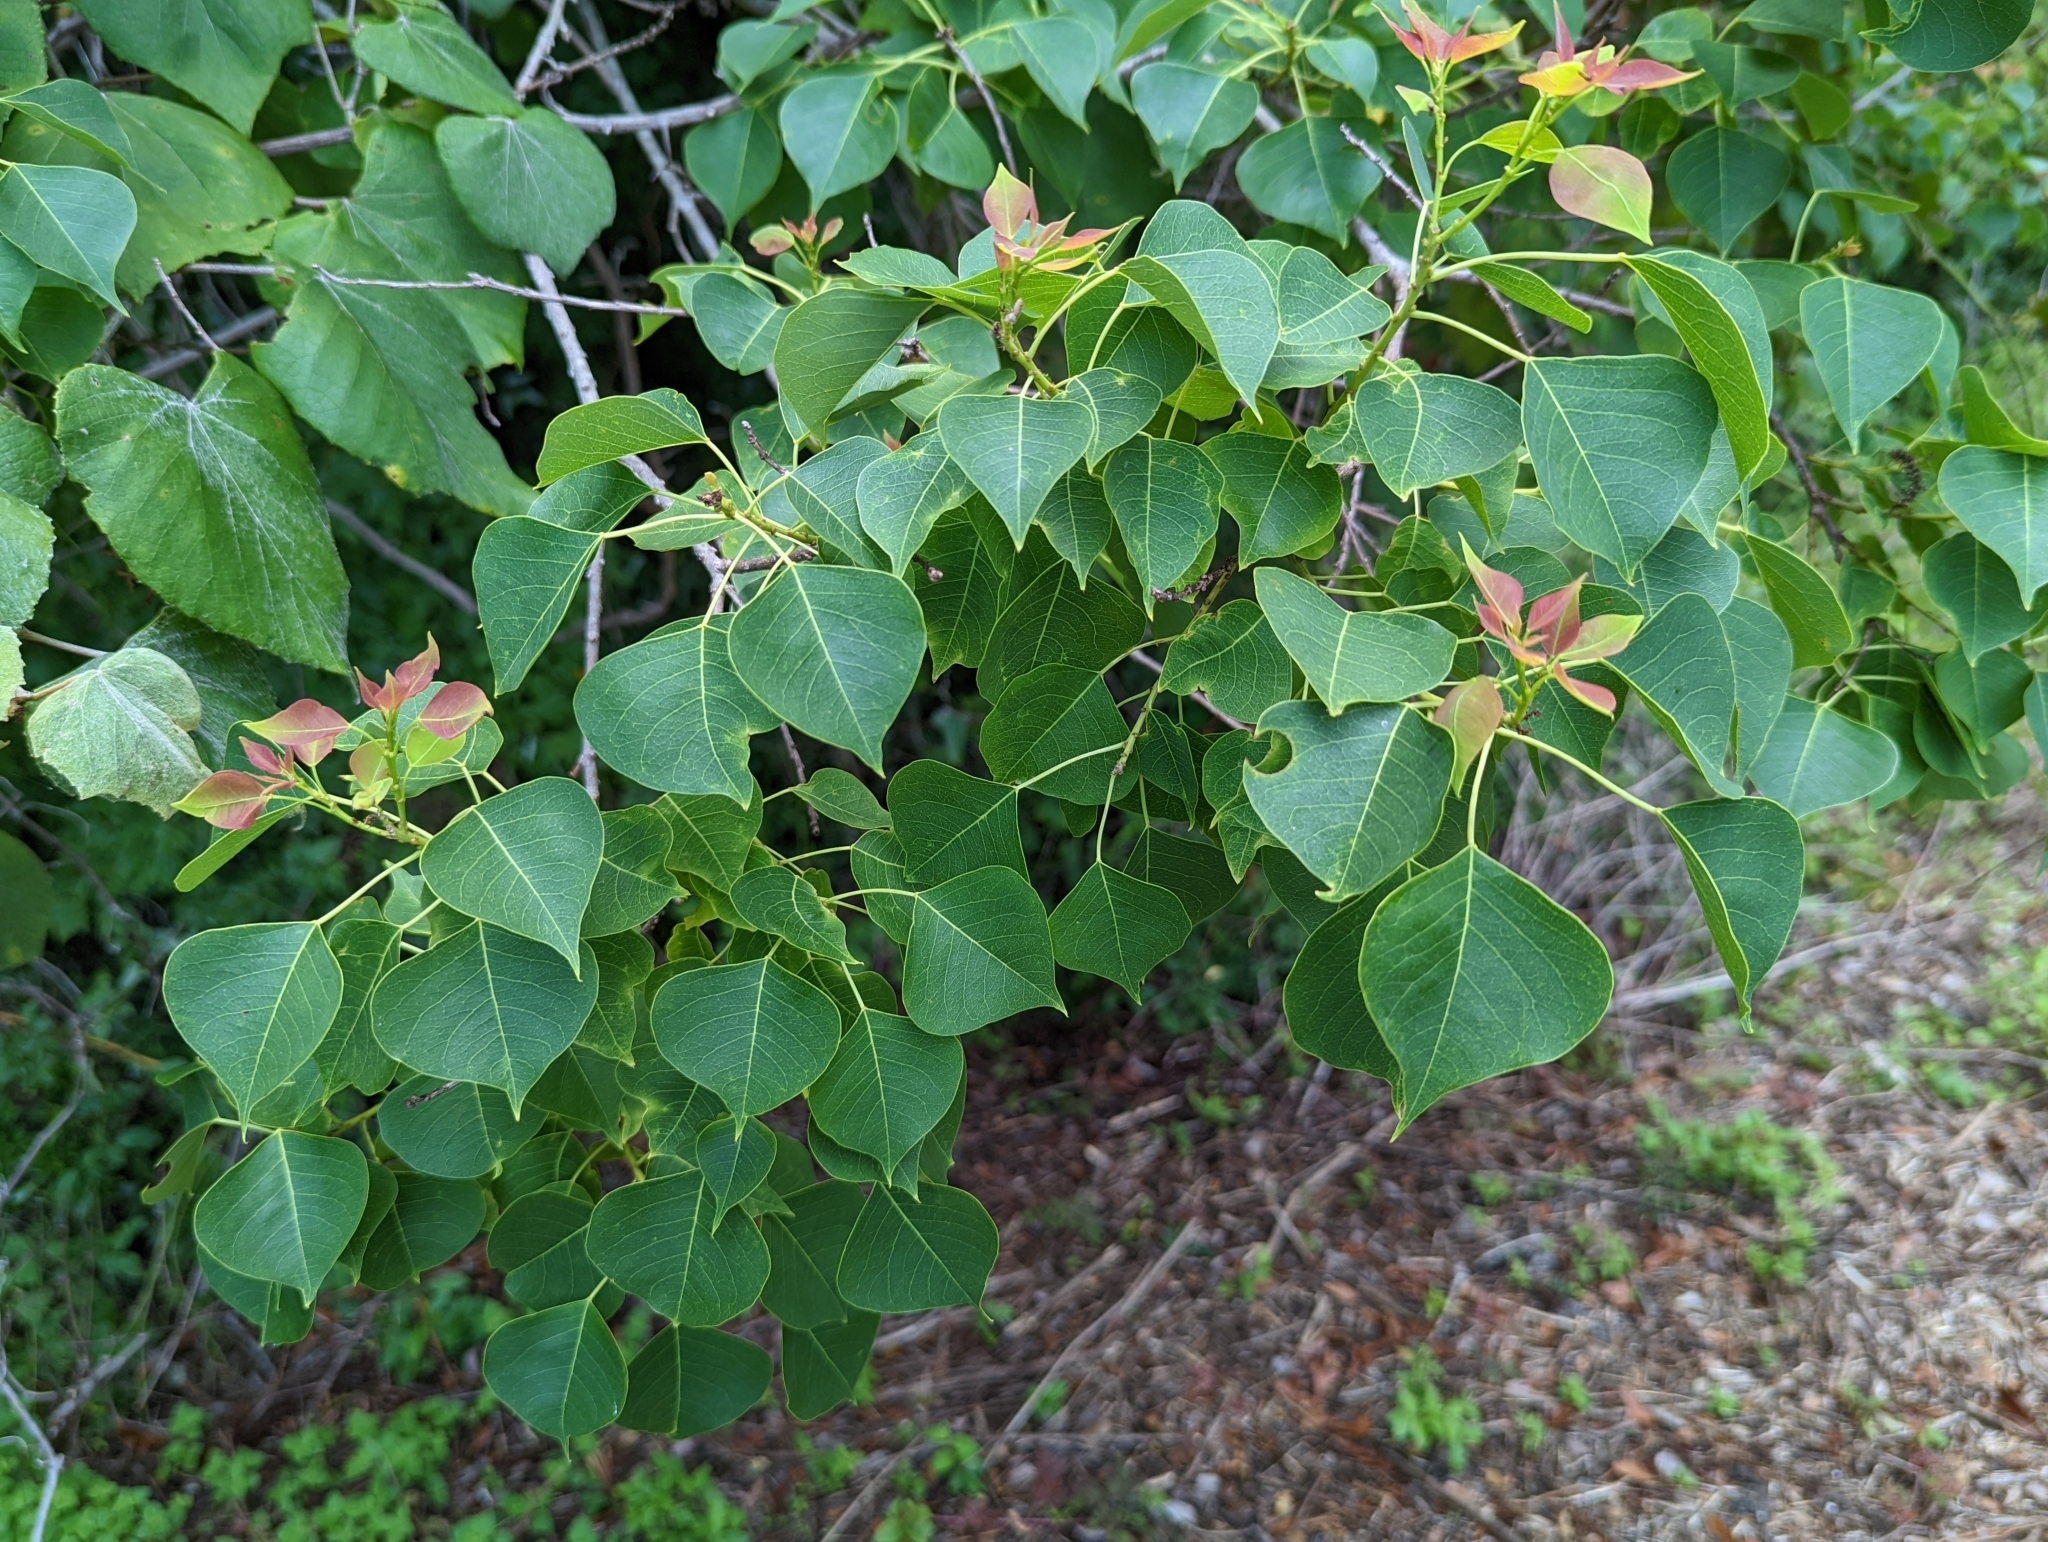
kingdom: Plantae
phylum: Tracheophyta
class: Magnoliopsida
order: Malpighiales
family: Euphorbiaceae
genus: Triadica
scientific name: Triadica sebifera
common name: Chinese tallow
